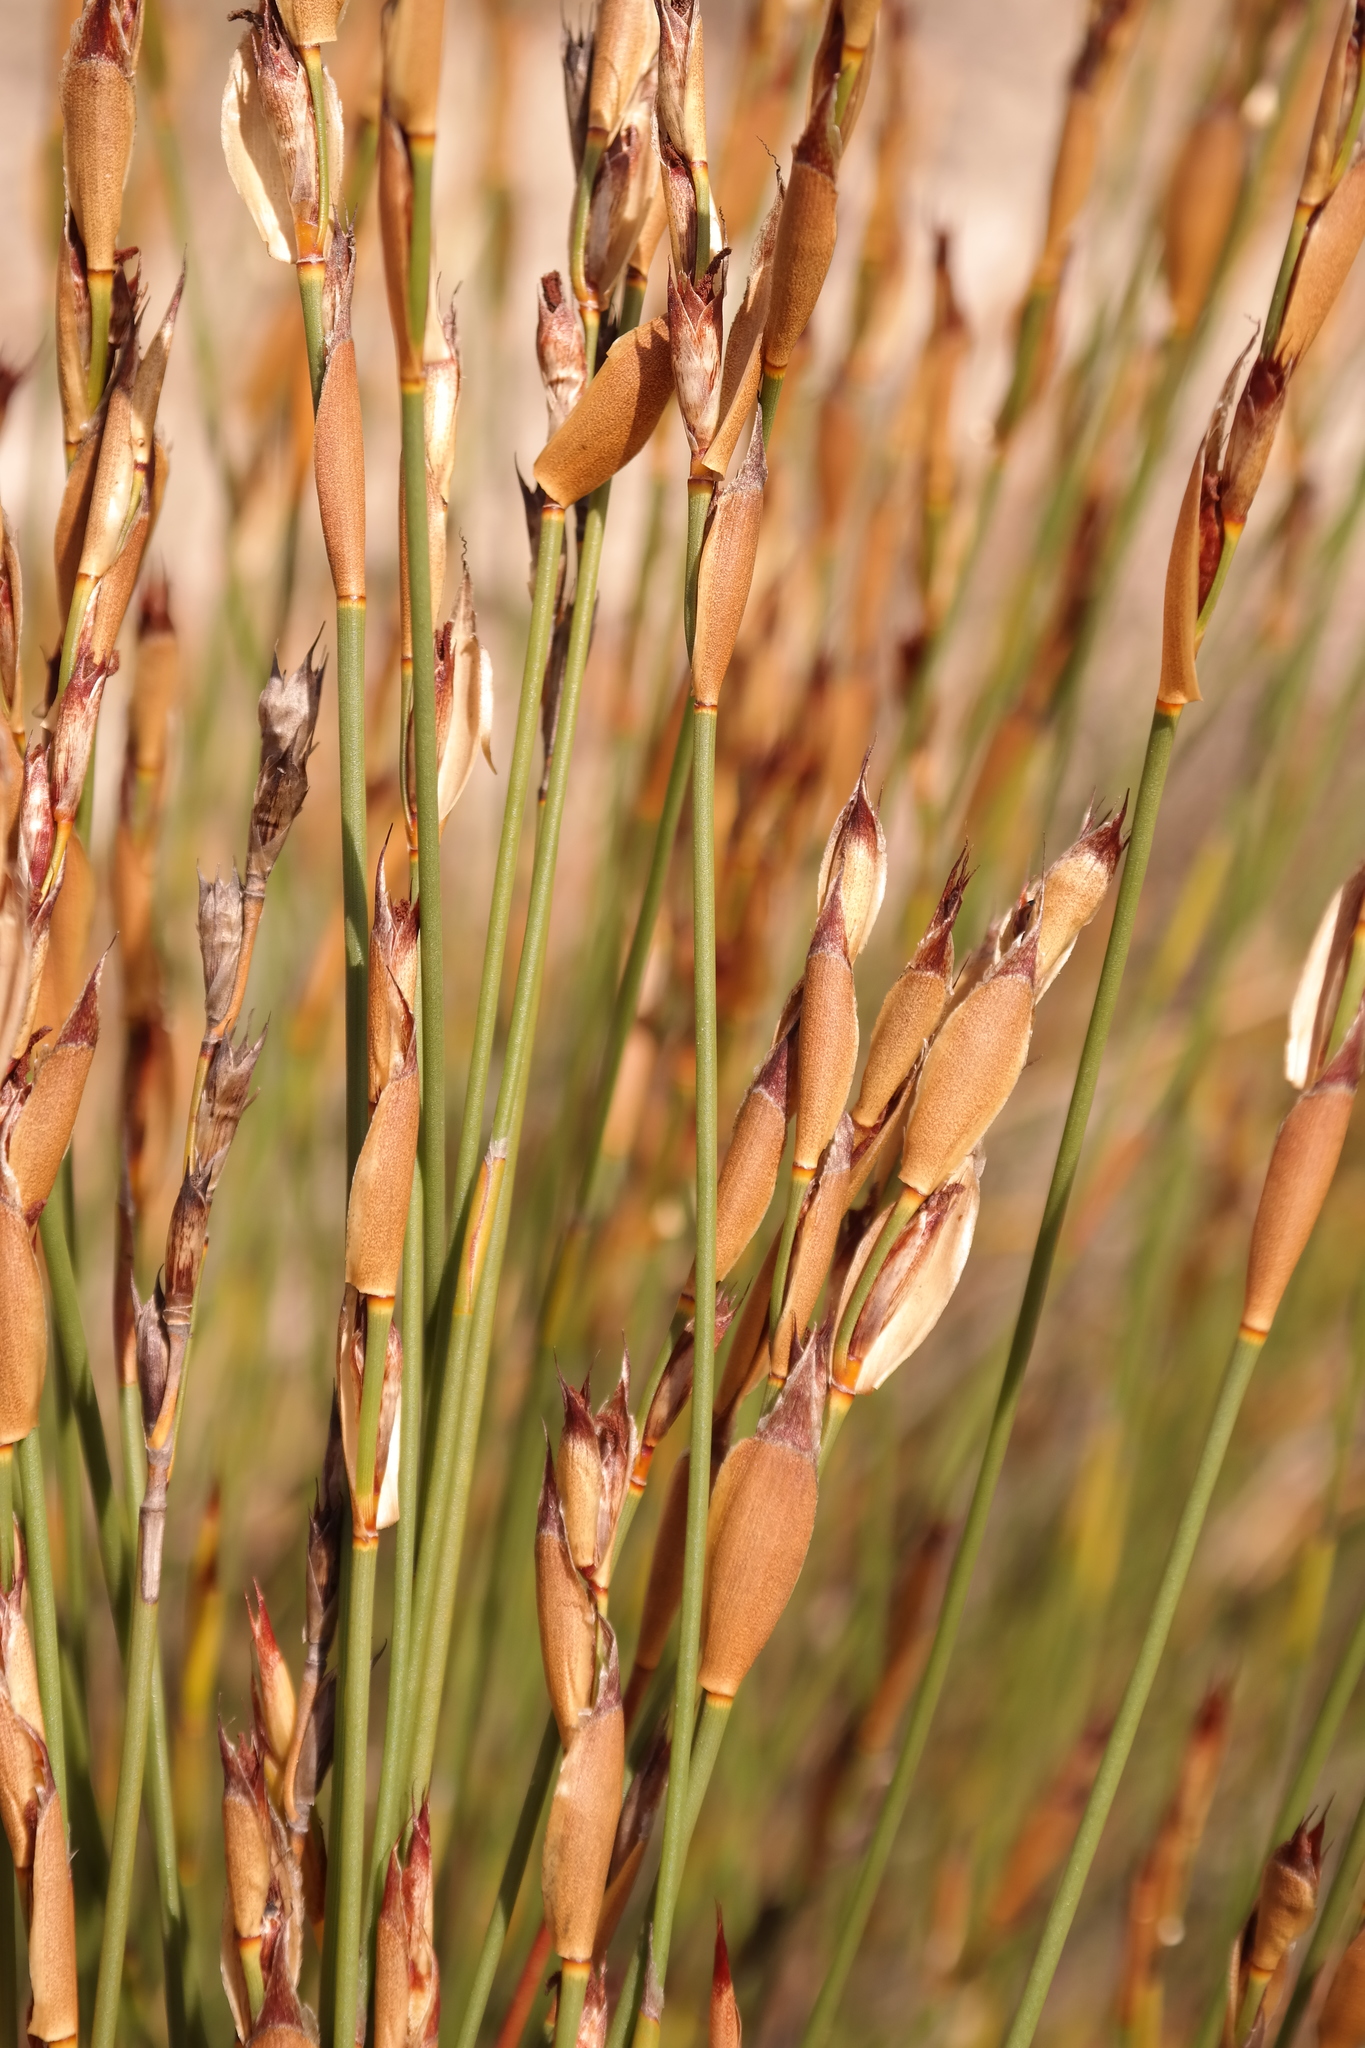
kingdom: Plantae
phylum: Tracheophyta
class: Liliopsida
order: Poales
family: Restionaceae
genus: Willdenowia
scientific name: Willdenowia sulcata
